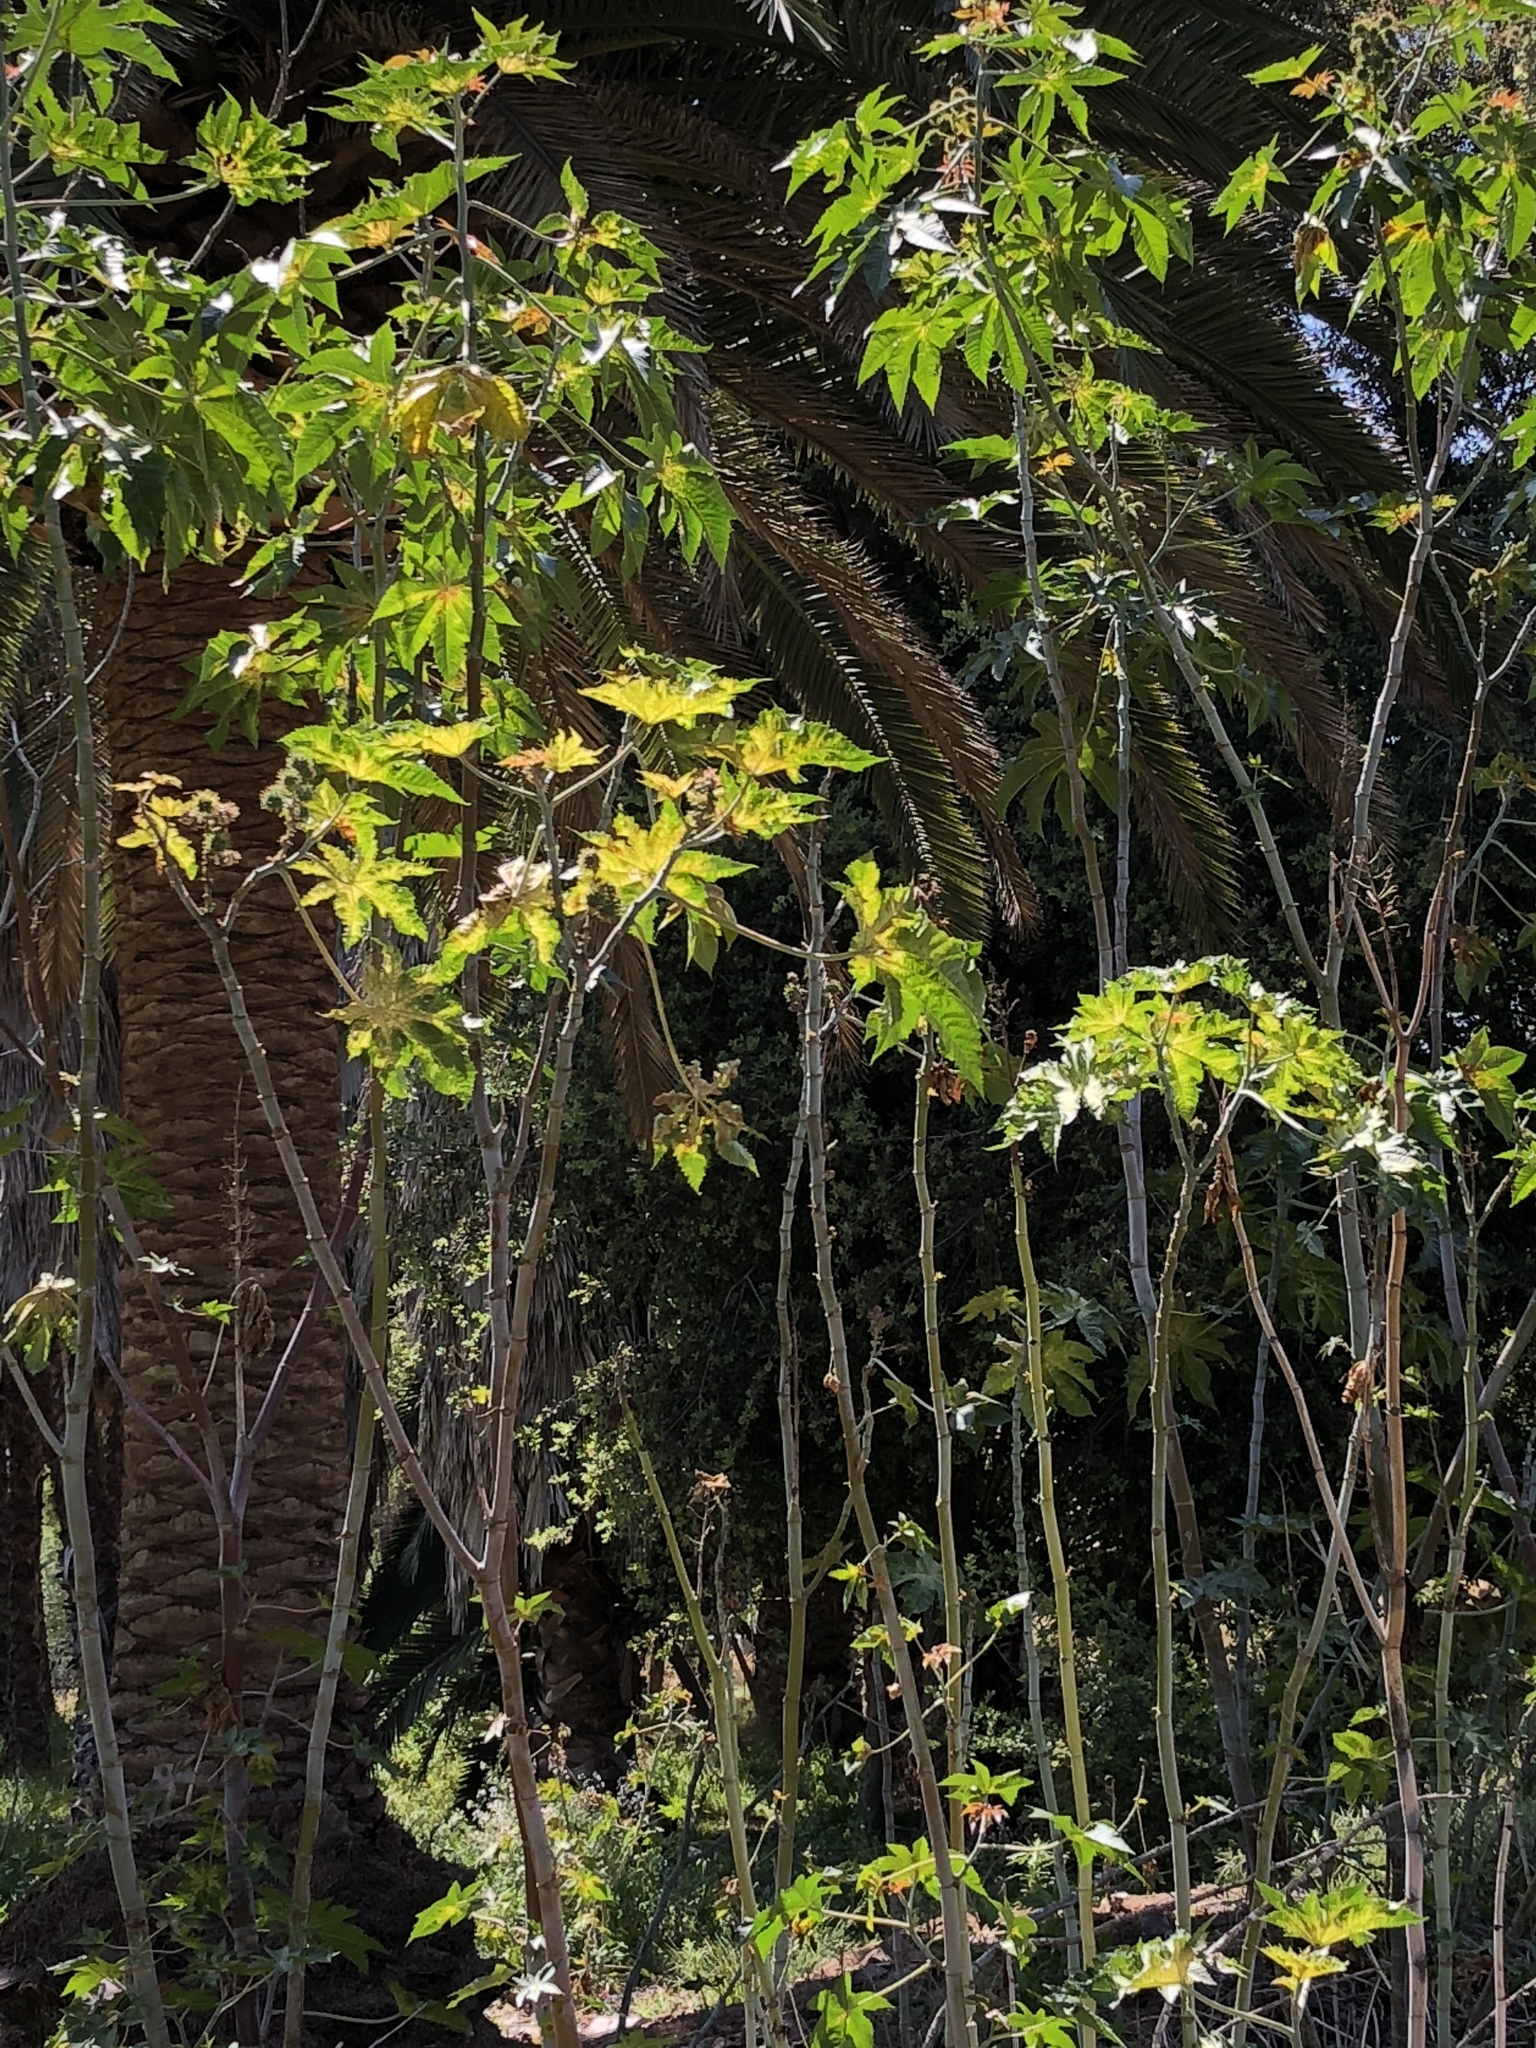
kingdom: Plantae
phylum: Tracheophyta
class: Magnoliopsida
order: Malpighiales
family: Euphorbiaceae
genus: Ricinus
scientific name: Ricinus communis
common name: Castor-oil-plant
